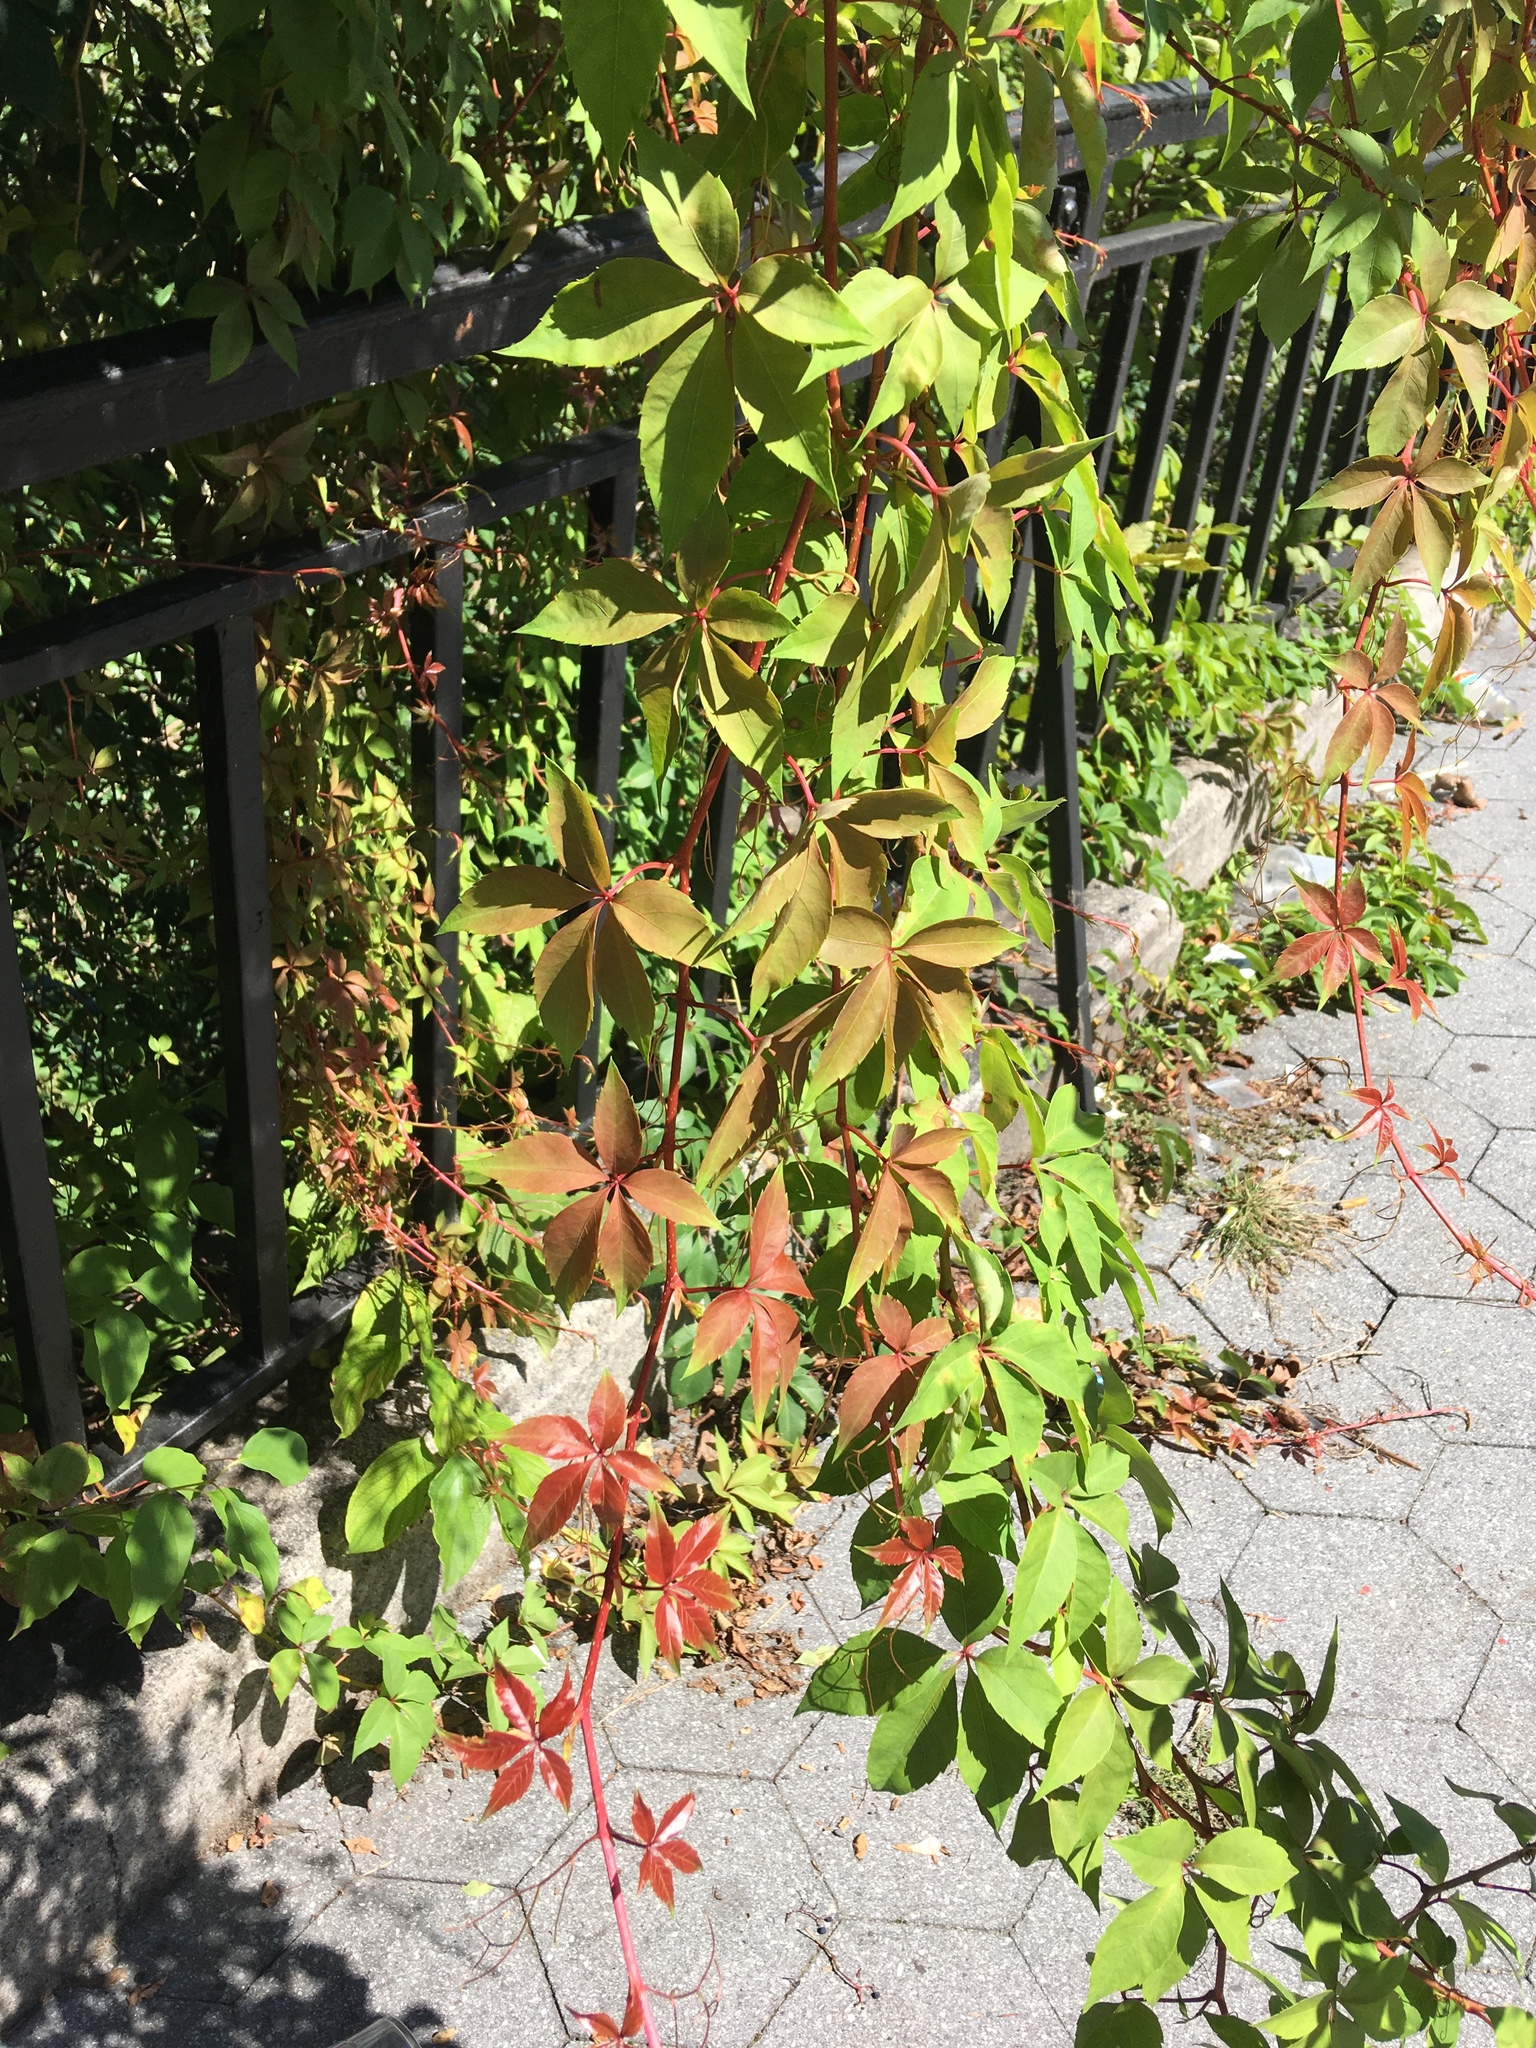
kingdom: Plantae
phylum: Tracheophyta
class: Magnoliopsida
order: Vitales
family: Vitaceae
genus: Parthenocissus
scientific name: Parthenocissus quinquefolia
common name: Virginia-creeper
